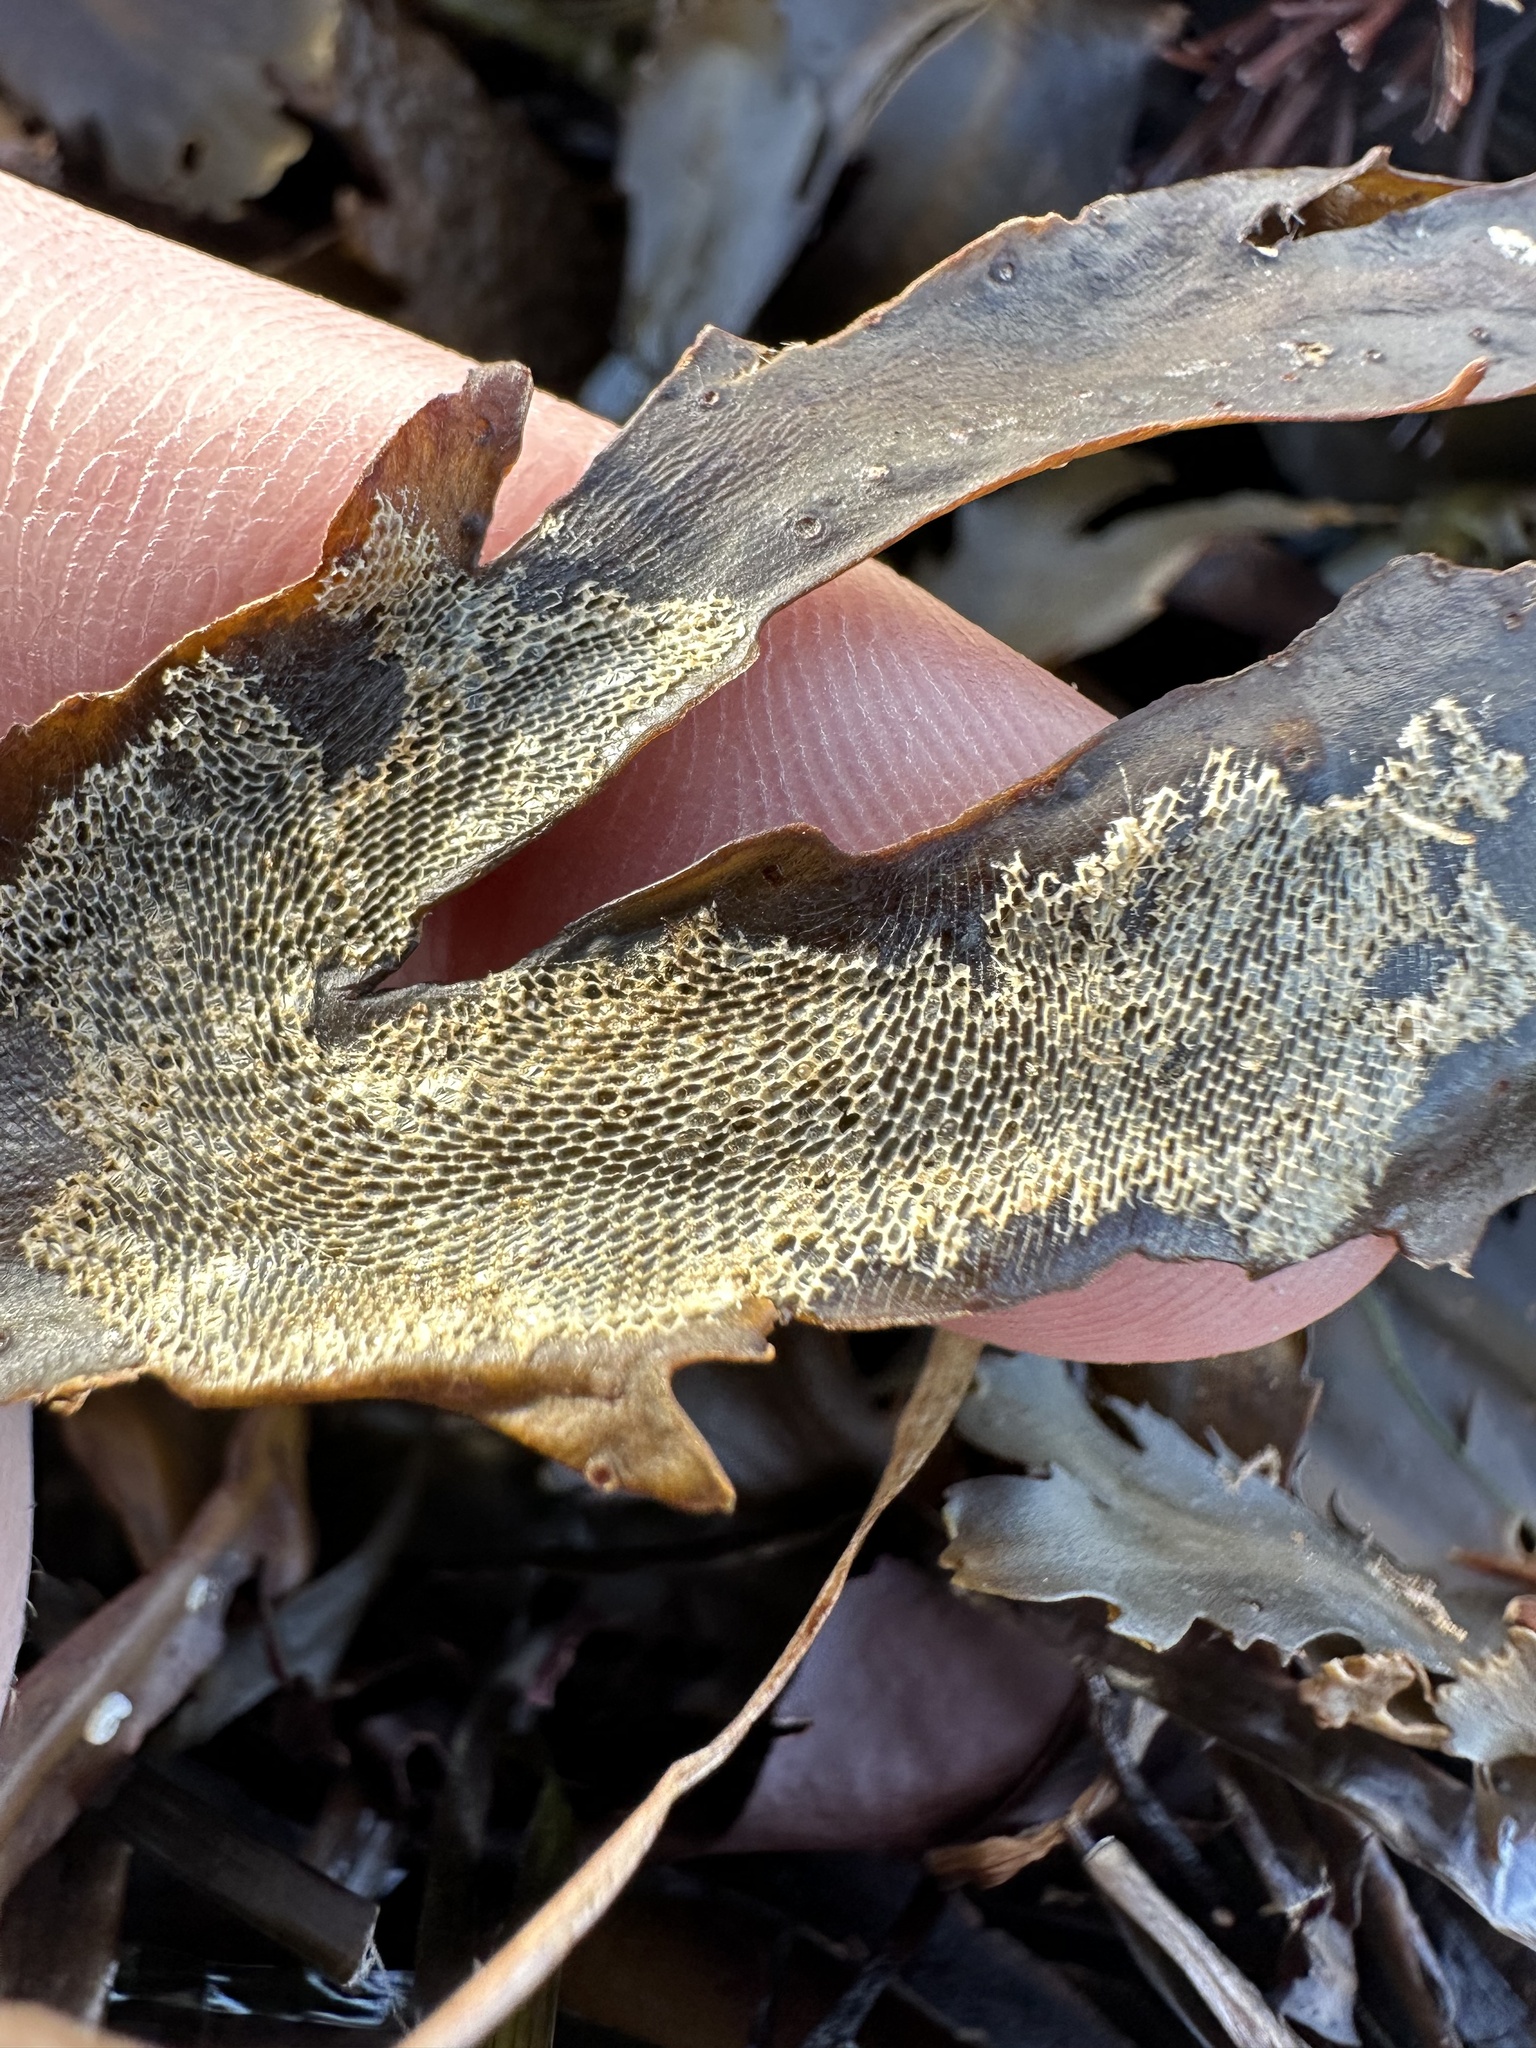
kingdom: Animalia
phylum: Bryozoa
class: Gymnolaemata
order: Cheilostomatida
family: Membraniporidae
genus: Membranipora
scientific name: Membranipora membranacea
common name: Sea mat
